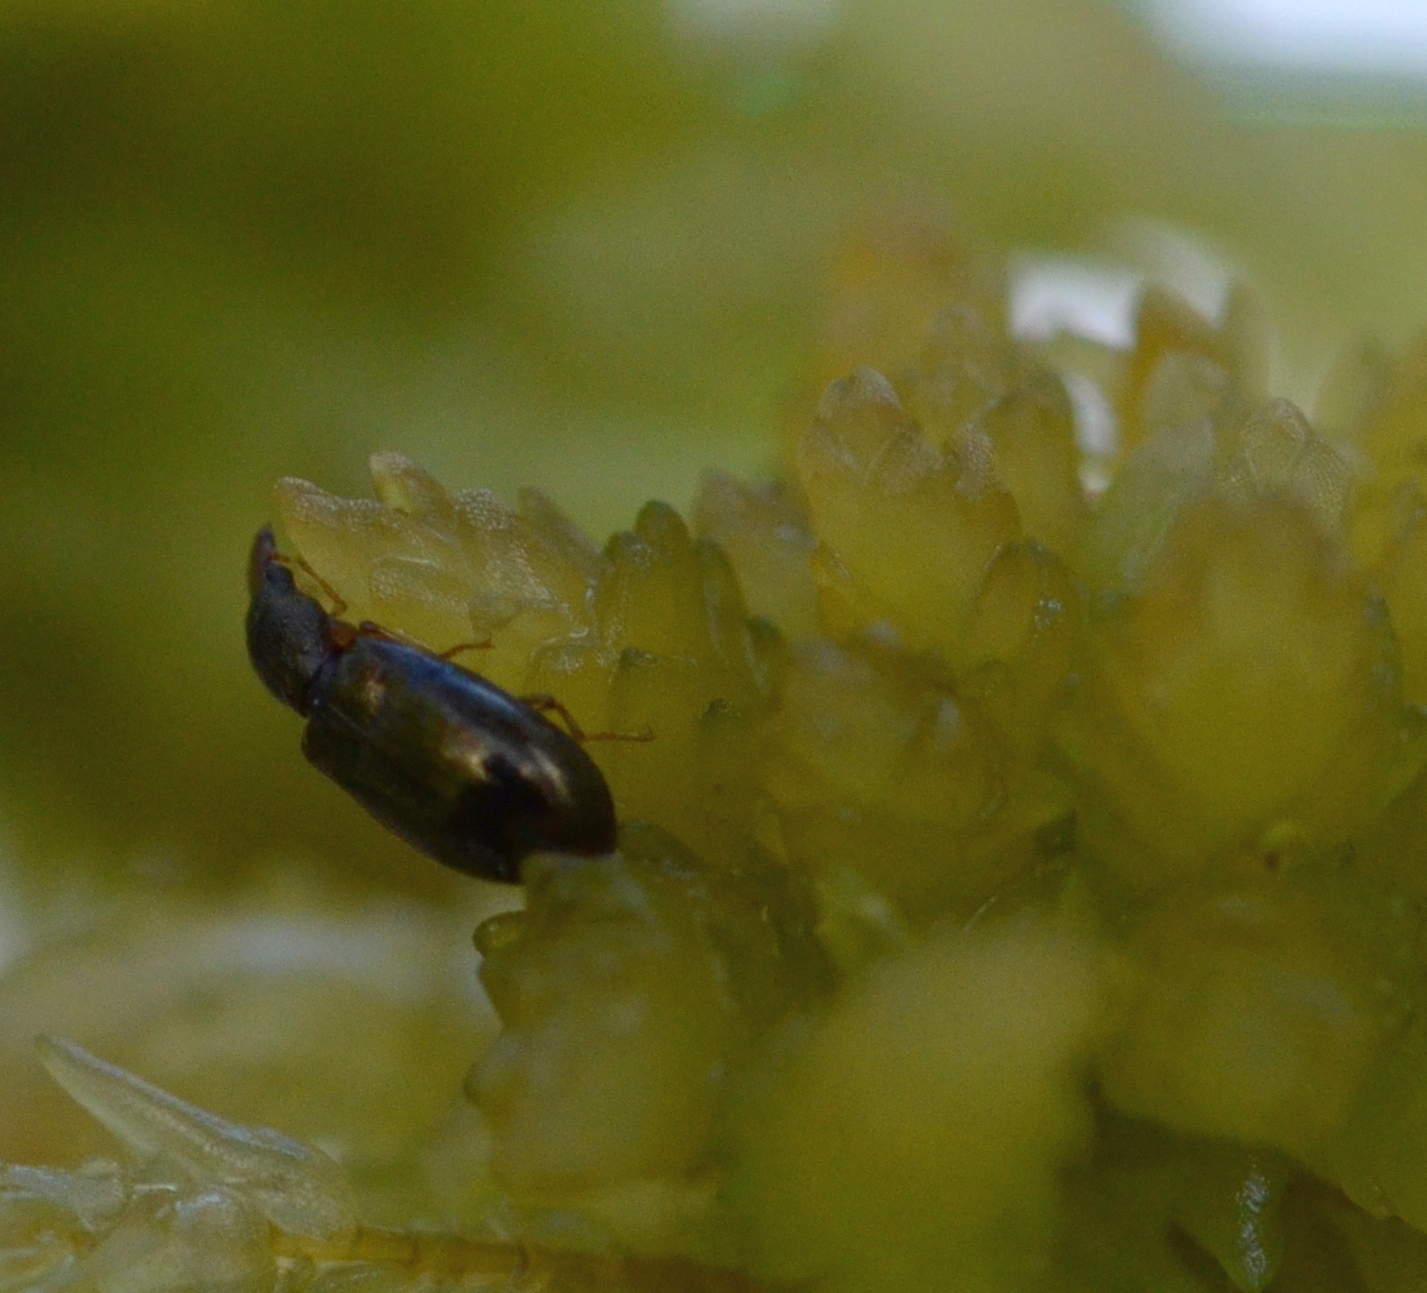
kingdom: Animalia
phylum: Arthropoda
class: Insecta
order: Coleoptera
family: Salpingidae
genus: Salpingus
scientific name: Salpingus planirostris
